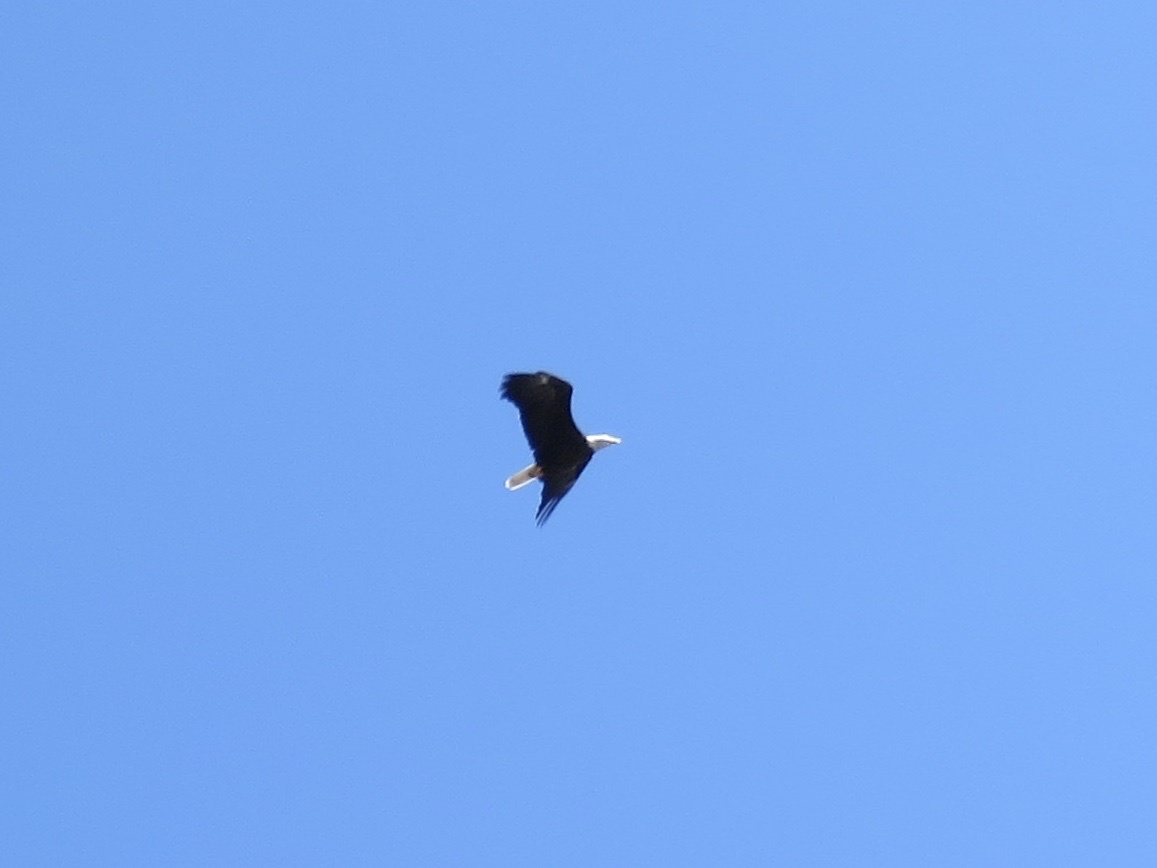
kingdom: Animalia
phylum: Chordata
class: Aves
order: Accipitriformes
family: Accipitridae
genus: Haliaeetus
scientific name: Haliaeetus leucocephalus
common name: Bald eagle
